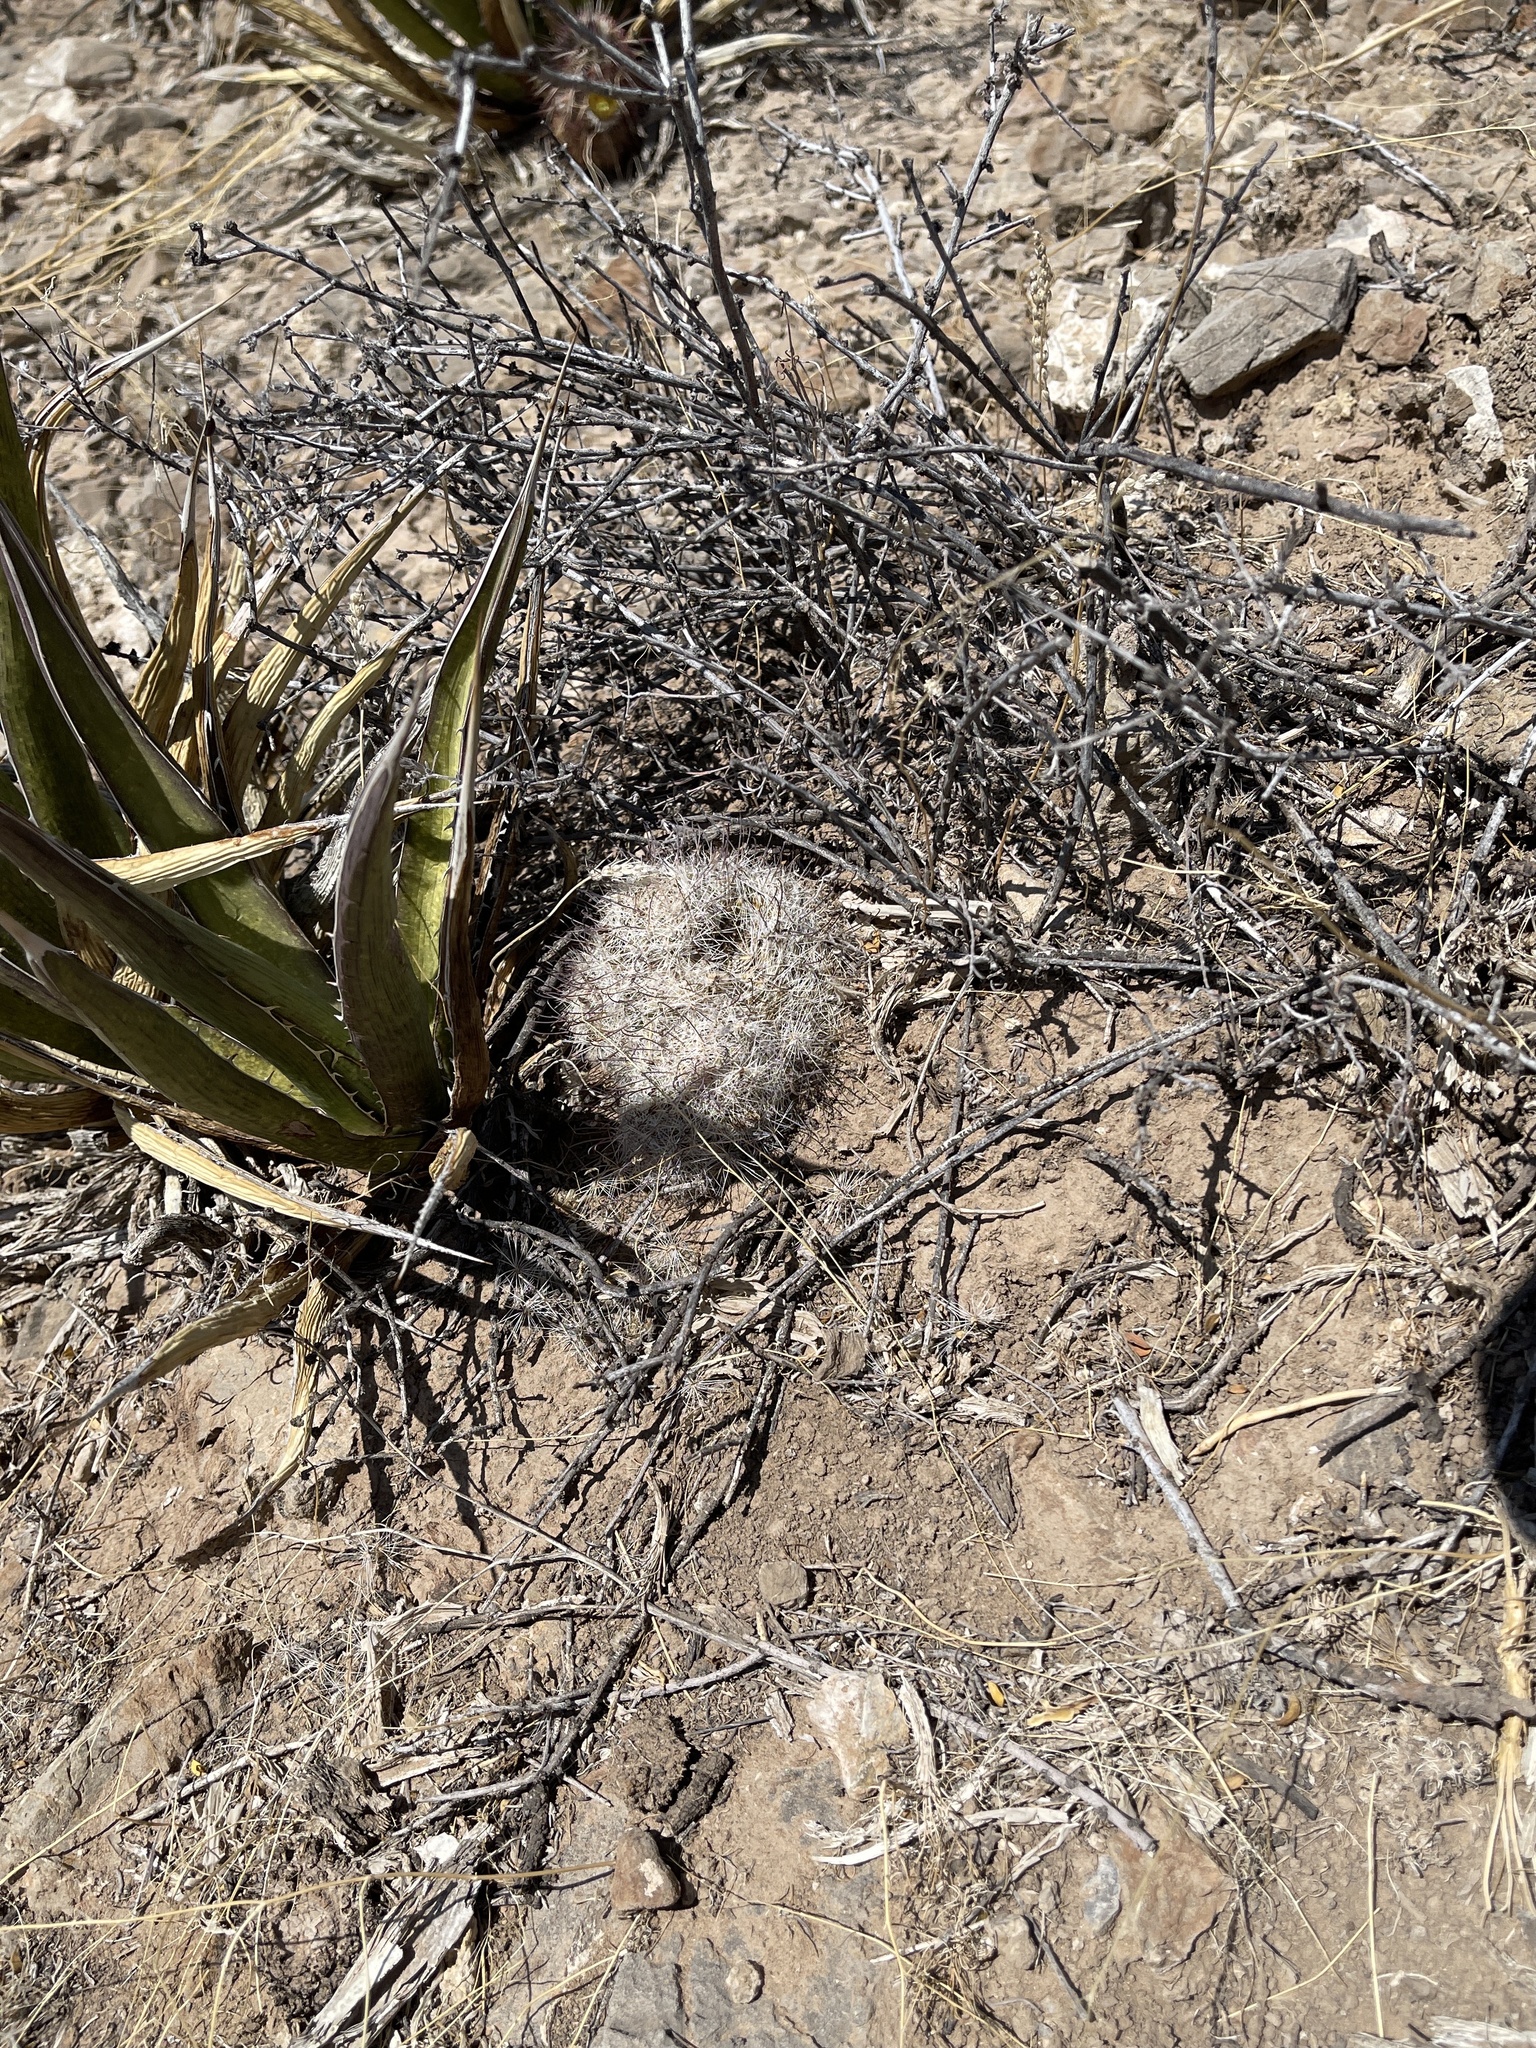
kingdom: Plantae
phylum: Tracheophyta
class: Magnoliopsida
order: Caryophyllales
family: Cactaceae
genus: Cochemiea
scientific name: Cochemiea grahamii
